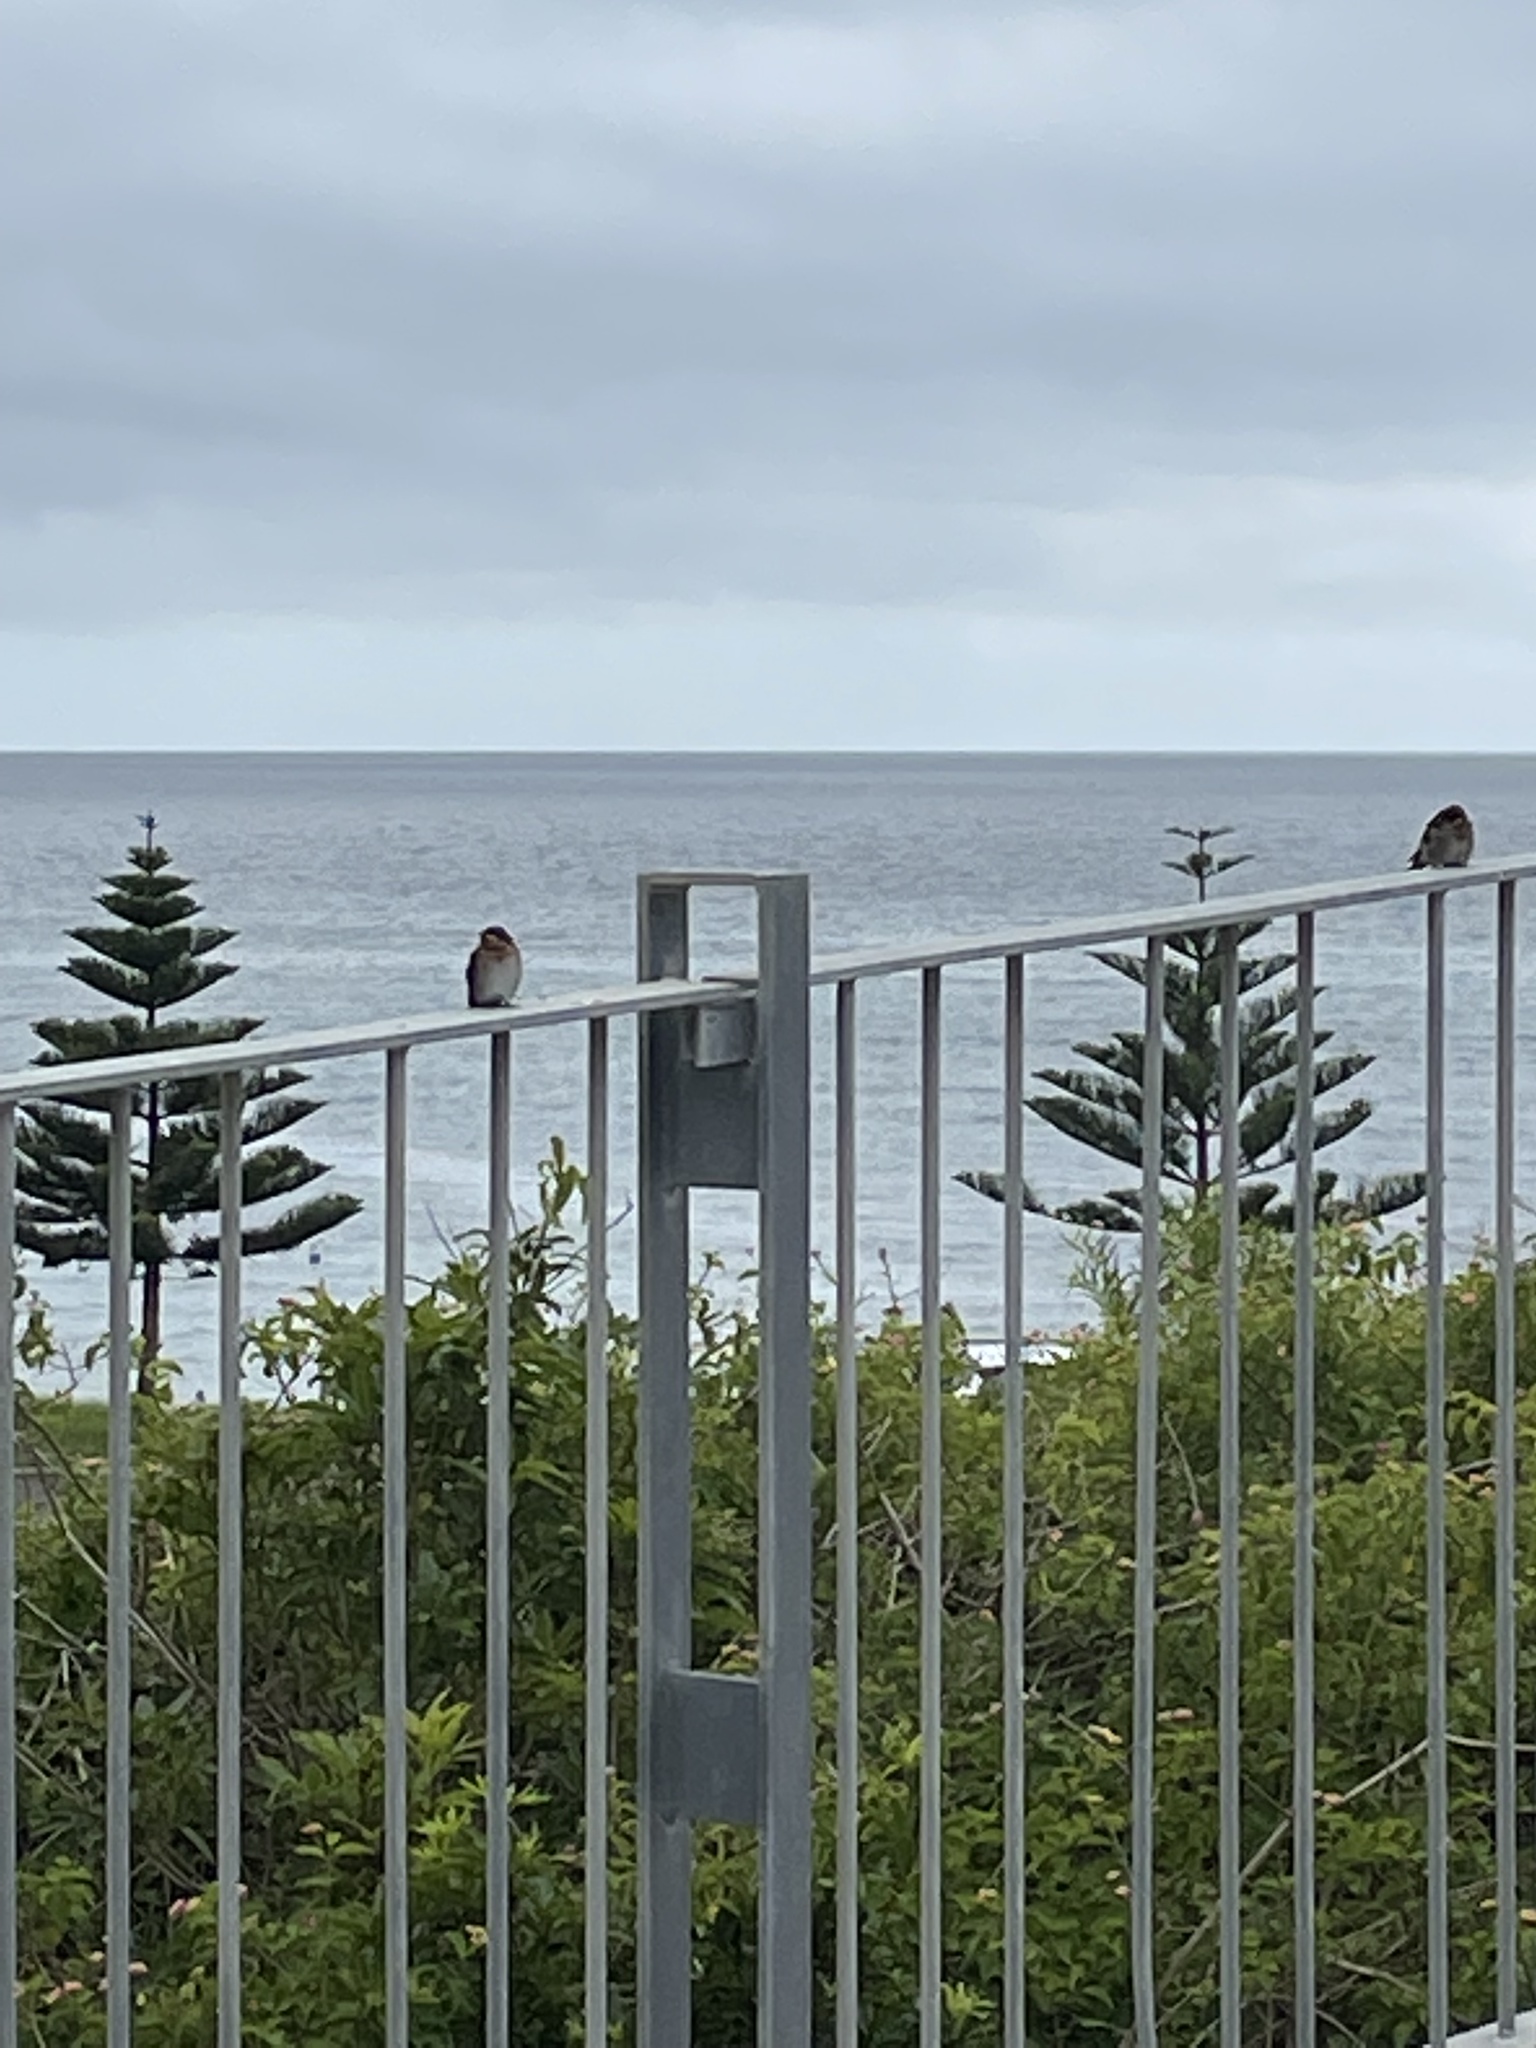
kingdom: Animalia
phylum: Chordata
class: Aves
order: Passeriformes
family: Hirundinidae
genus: Hirundo
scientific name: Hirundo neoxena
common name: Welcome swallow
